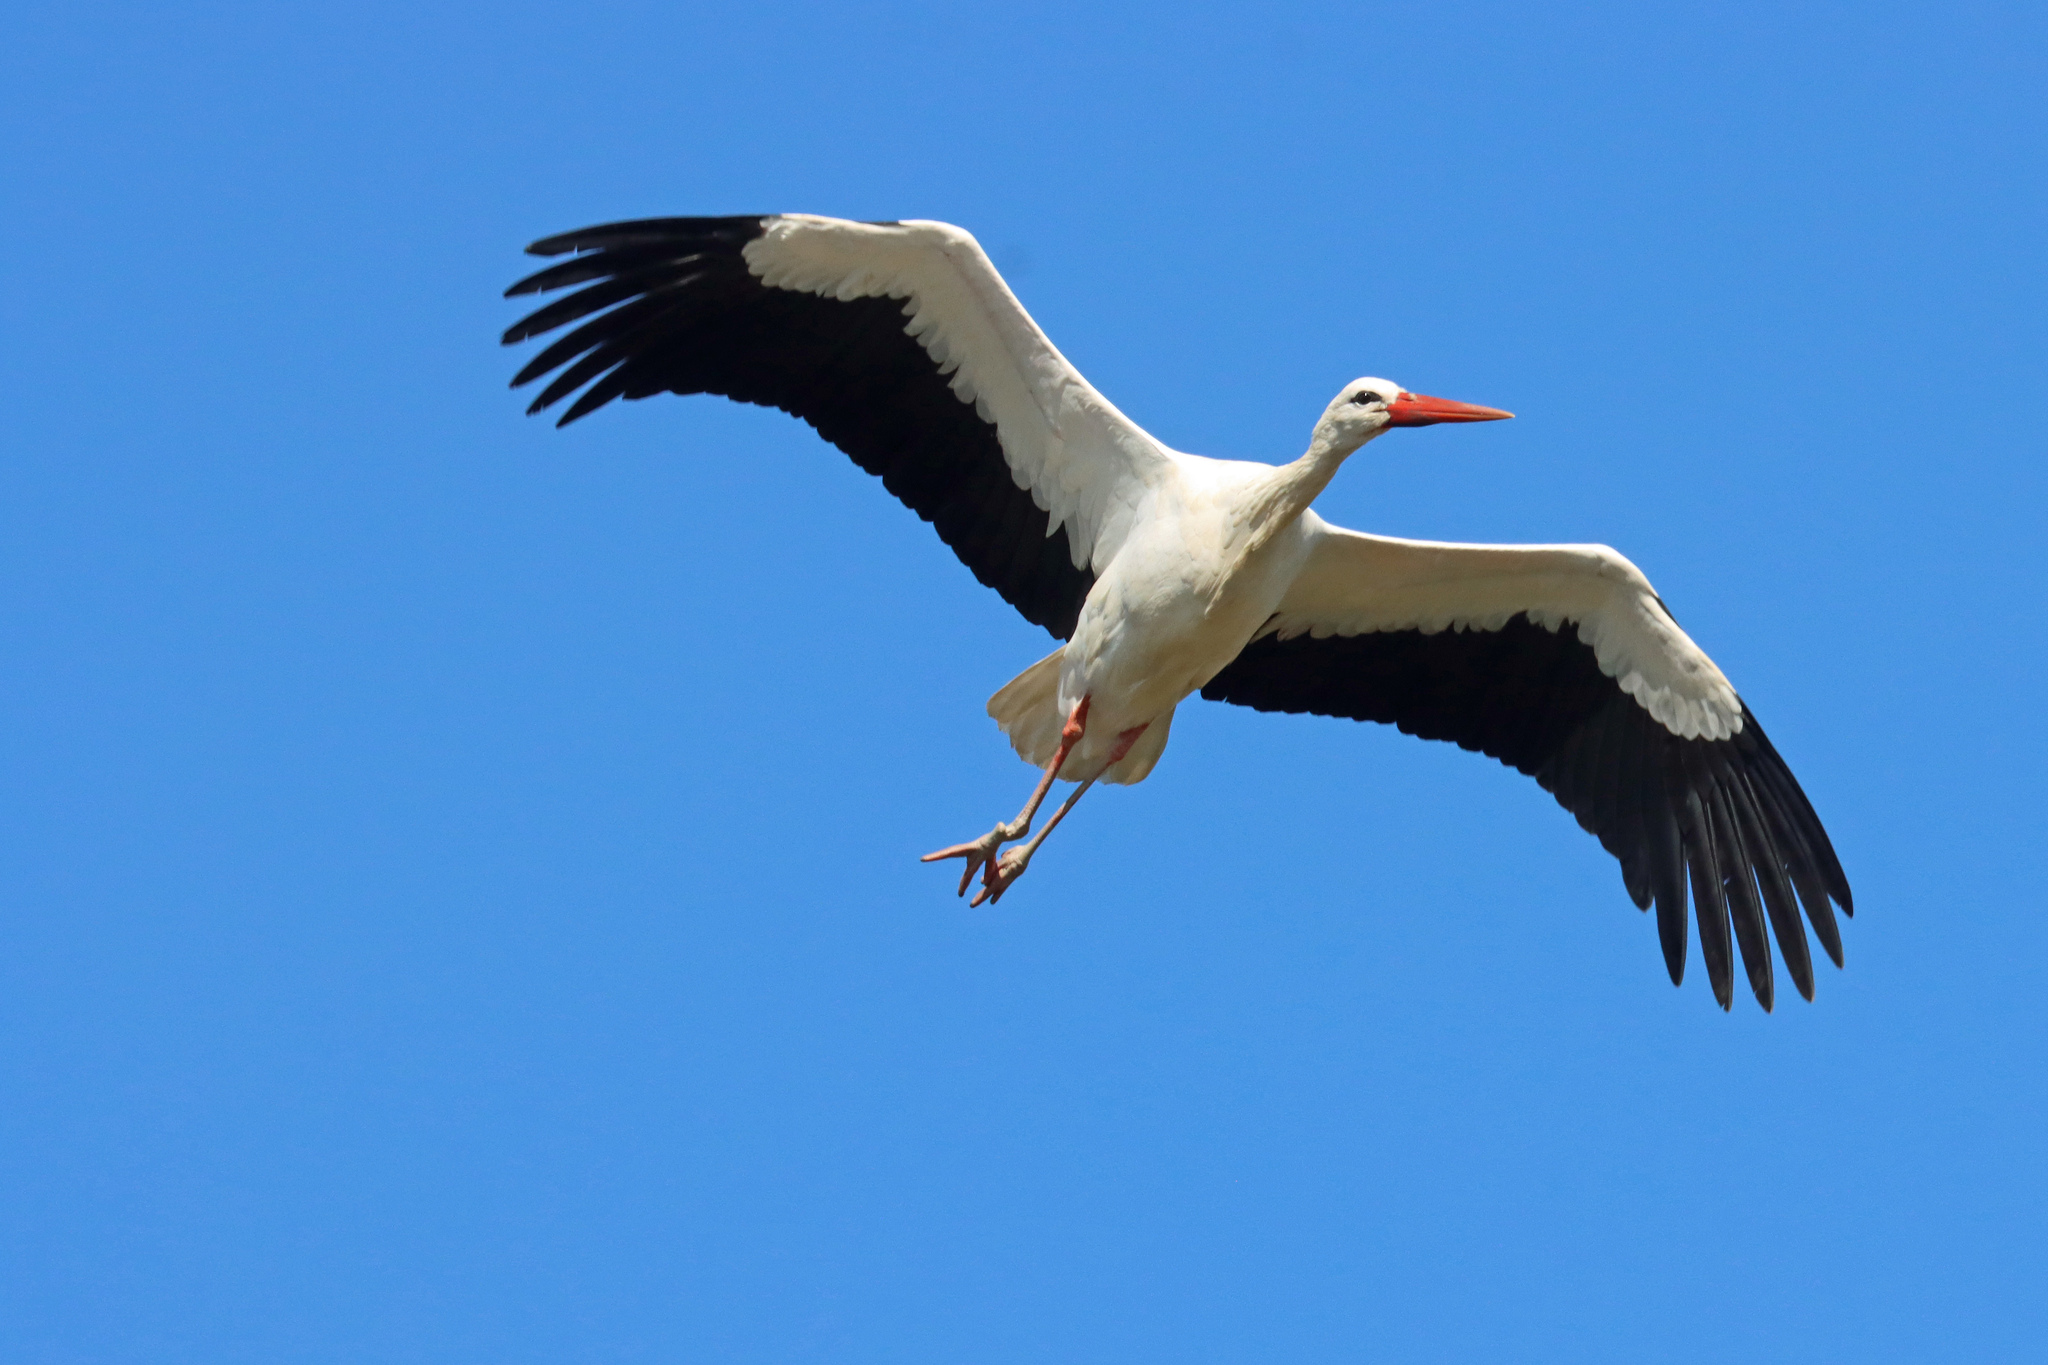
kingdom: Animalia
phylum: Chordata
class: Aves
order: Ciconiiformes
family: Ciconiidae
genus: Ciconia
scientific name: Ciconia ciconia
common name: White stork
